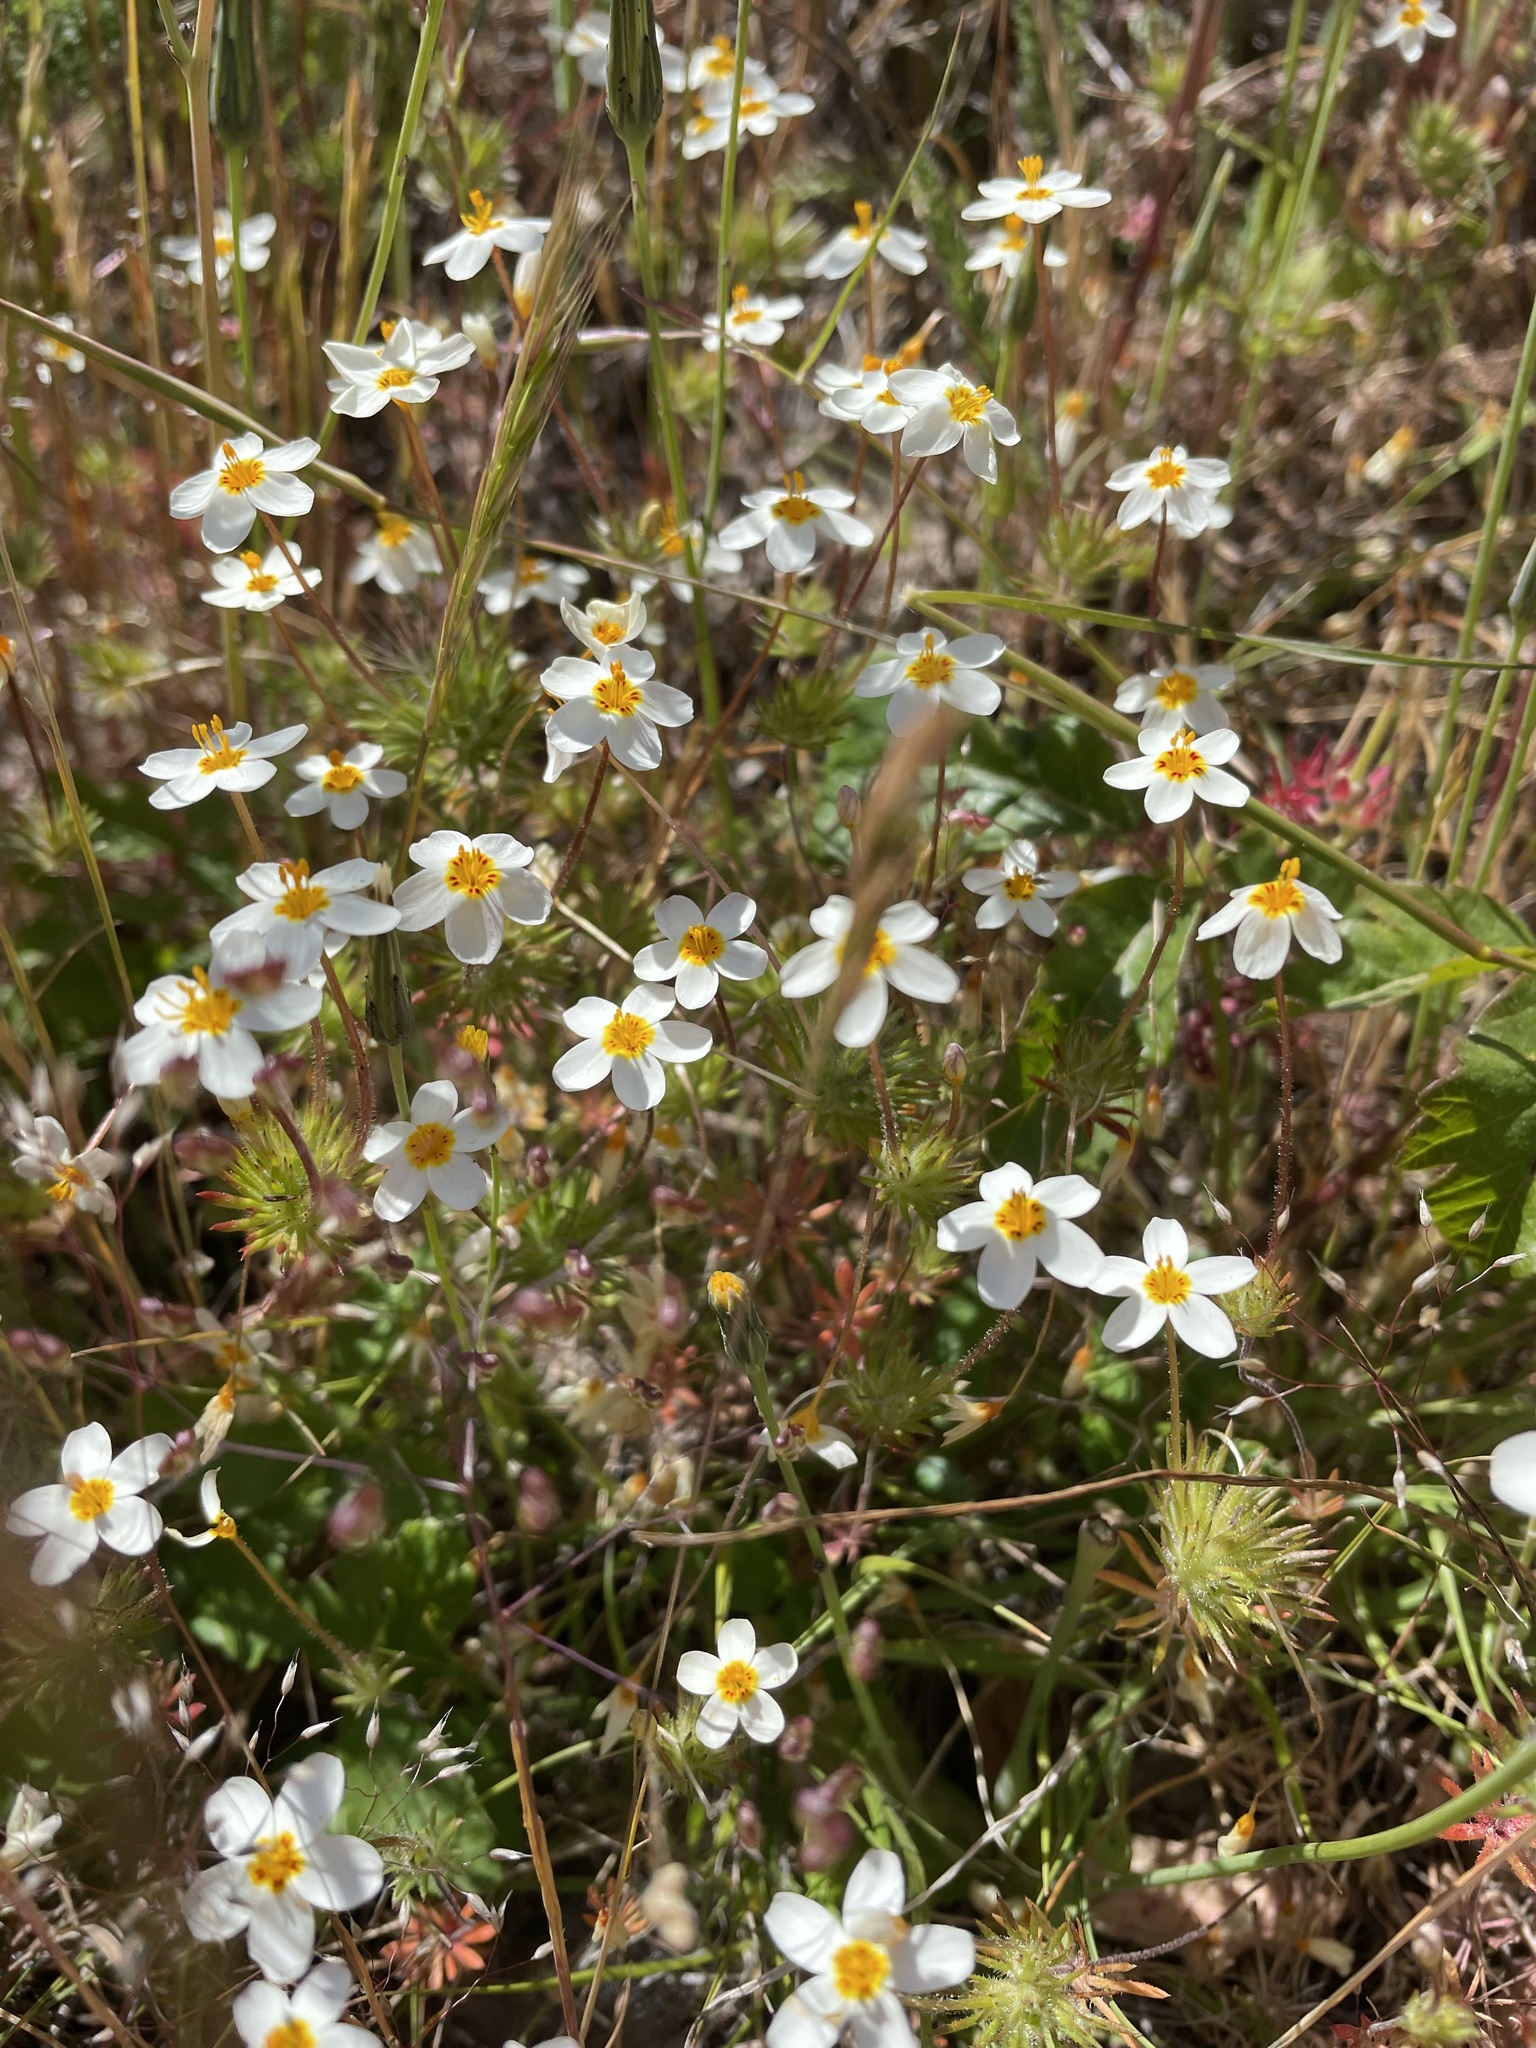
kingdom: Plantae
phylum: Tracheophyta
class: Magnoliopsida
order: Ericales
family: Polemoniaceae
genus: Leptosiphon
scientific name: Leptosiphon parviflorus
